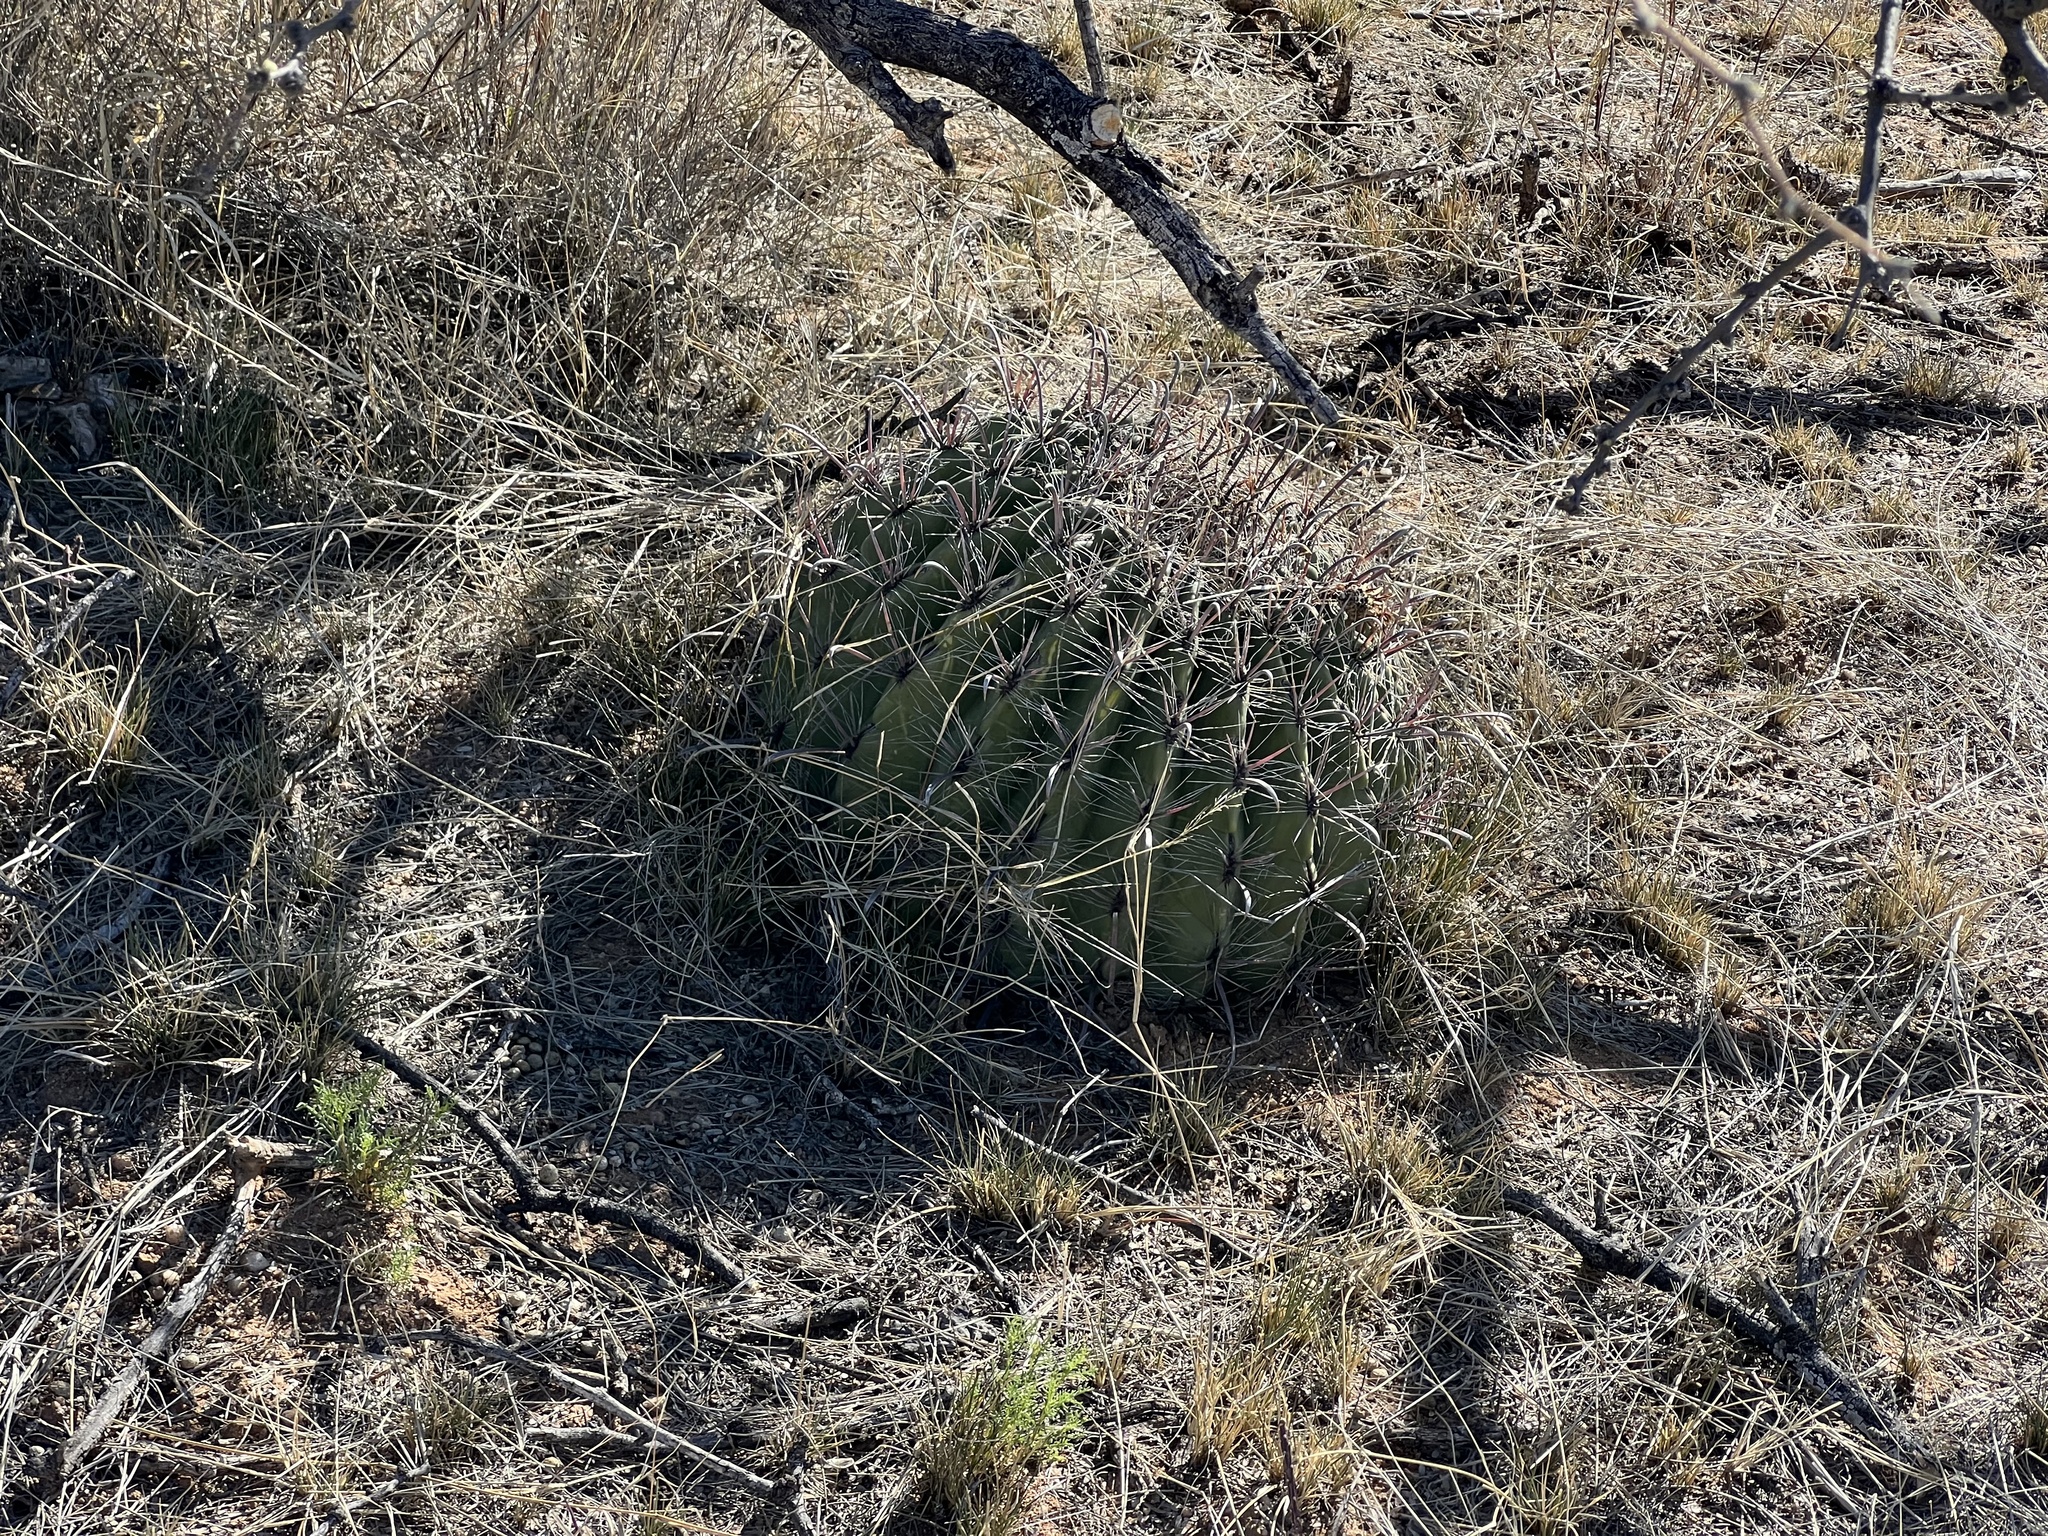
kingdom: Plantae
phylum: Tracheophyta
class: Magnoliopsida
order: Caryophyllales
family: Cactaceae
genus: Ferocactus
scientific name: Ferocactus wislizeni
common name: Candy barrel cactus
